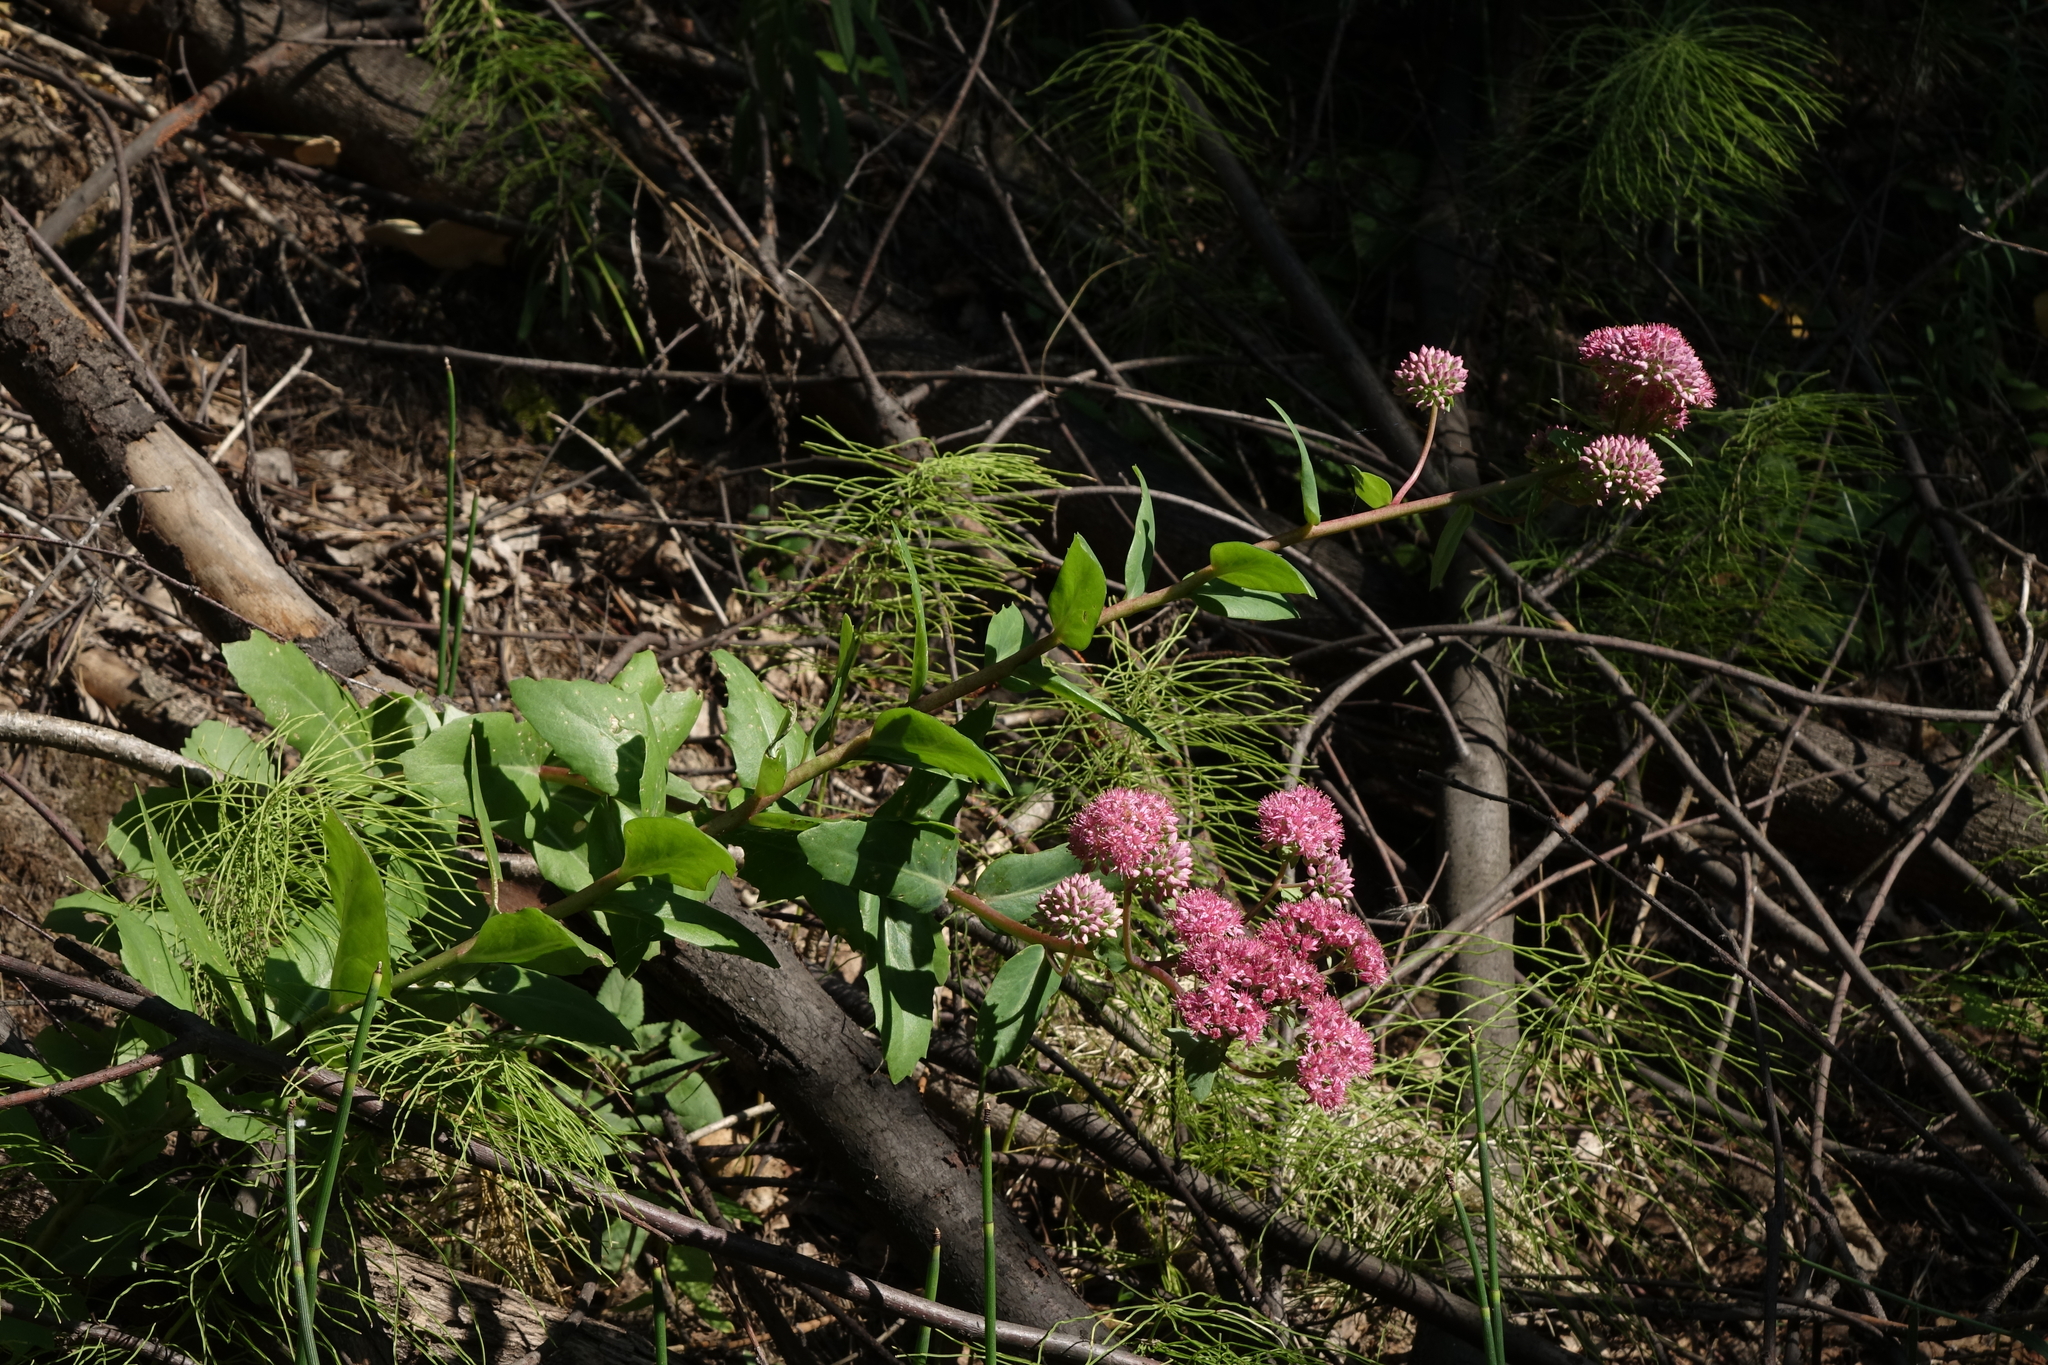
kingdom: Plantae
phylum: Tracheophyta
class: Magnoliopsida
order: Saxifragales
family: Crassulaceae
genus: Hylotelephium
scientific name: Hylotelephium telephium
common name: Live-forever
